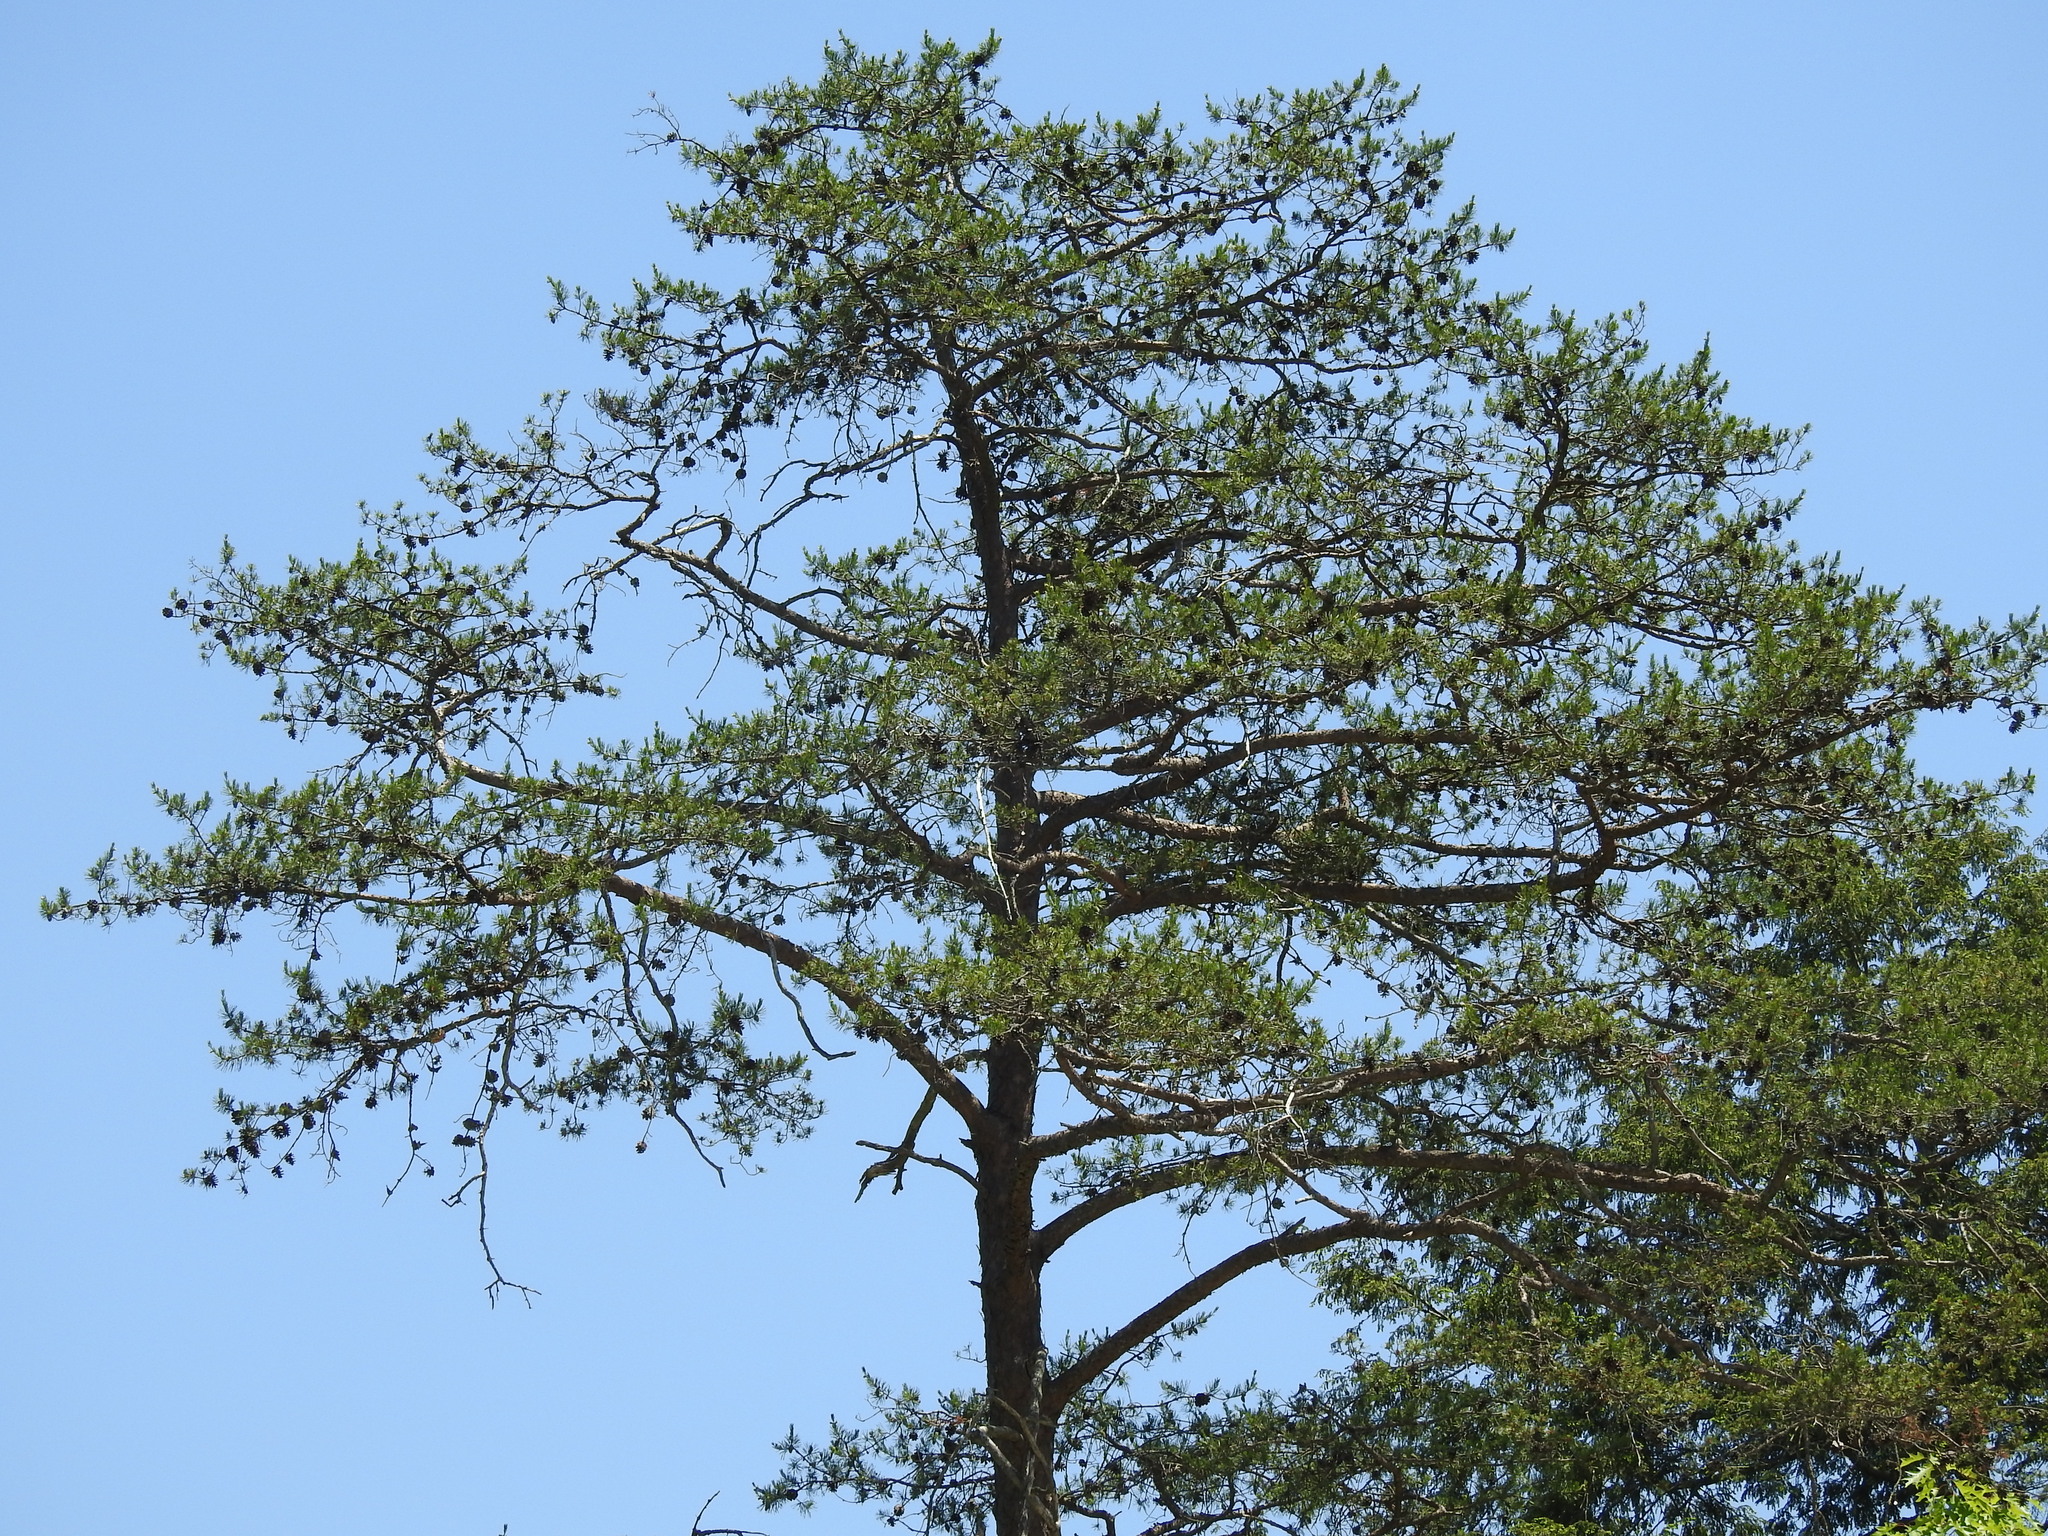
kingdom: Plantae
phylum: Tracheophyta
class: Pinopsida
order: Pinales
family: Pinaceae
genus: Pinus
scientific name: Pinus virginiana
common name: Scrub pine
